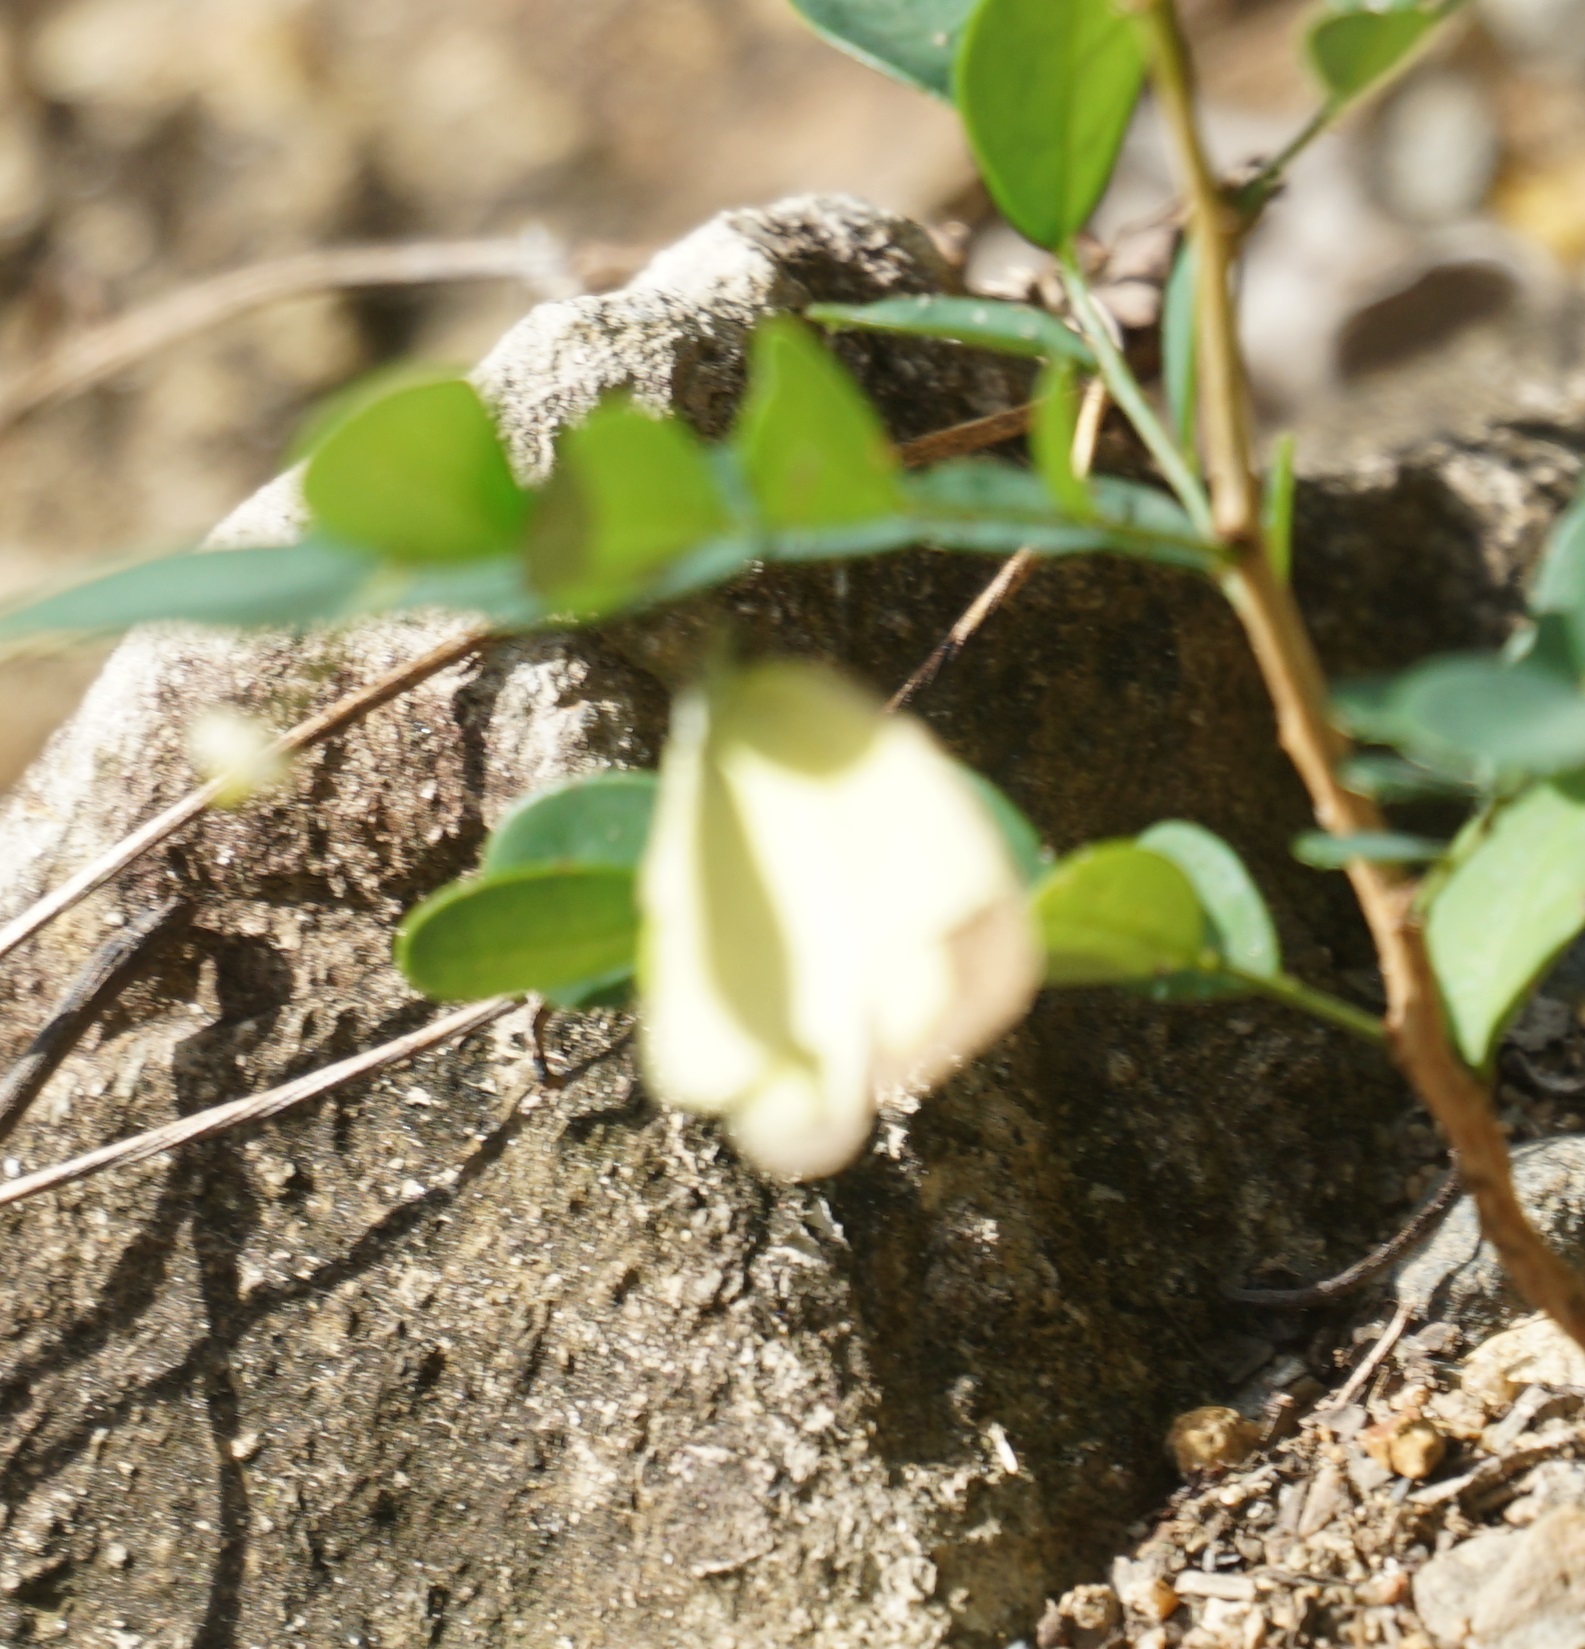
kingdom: Animalia
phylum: Arthropoda
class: Insecta
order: Lepidoptera
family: Pieridae
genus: Eurema
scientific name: Eurema
